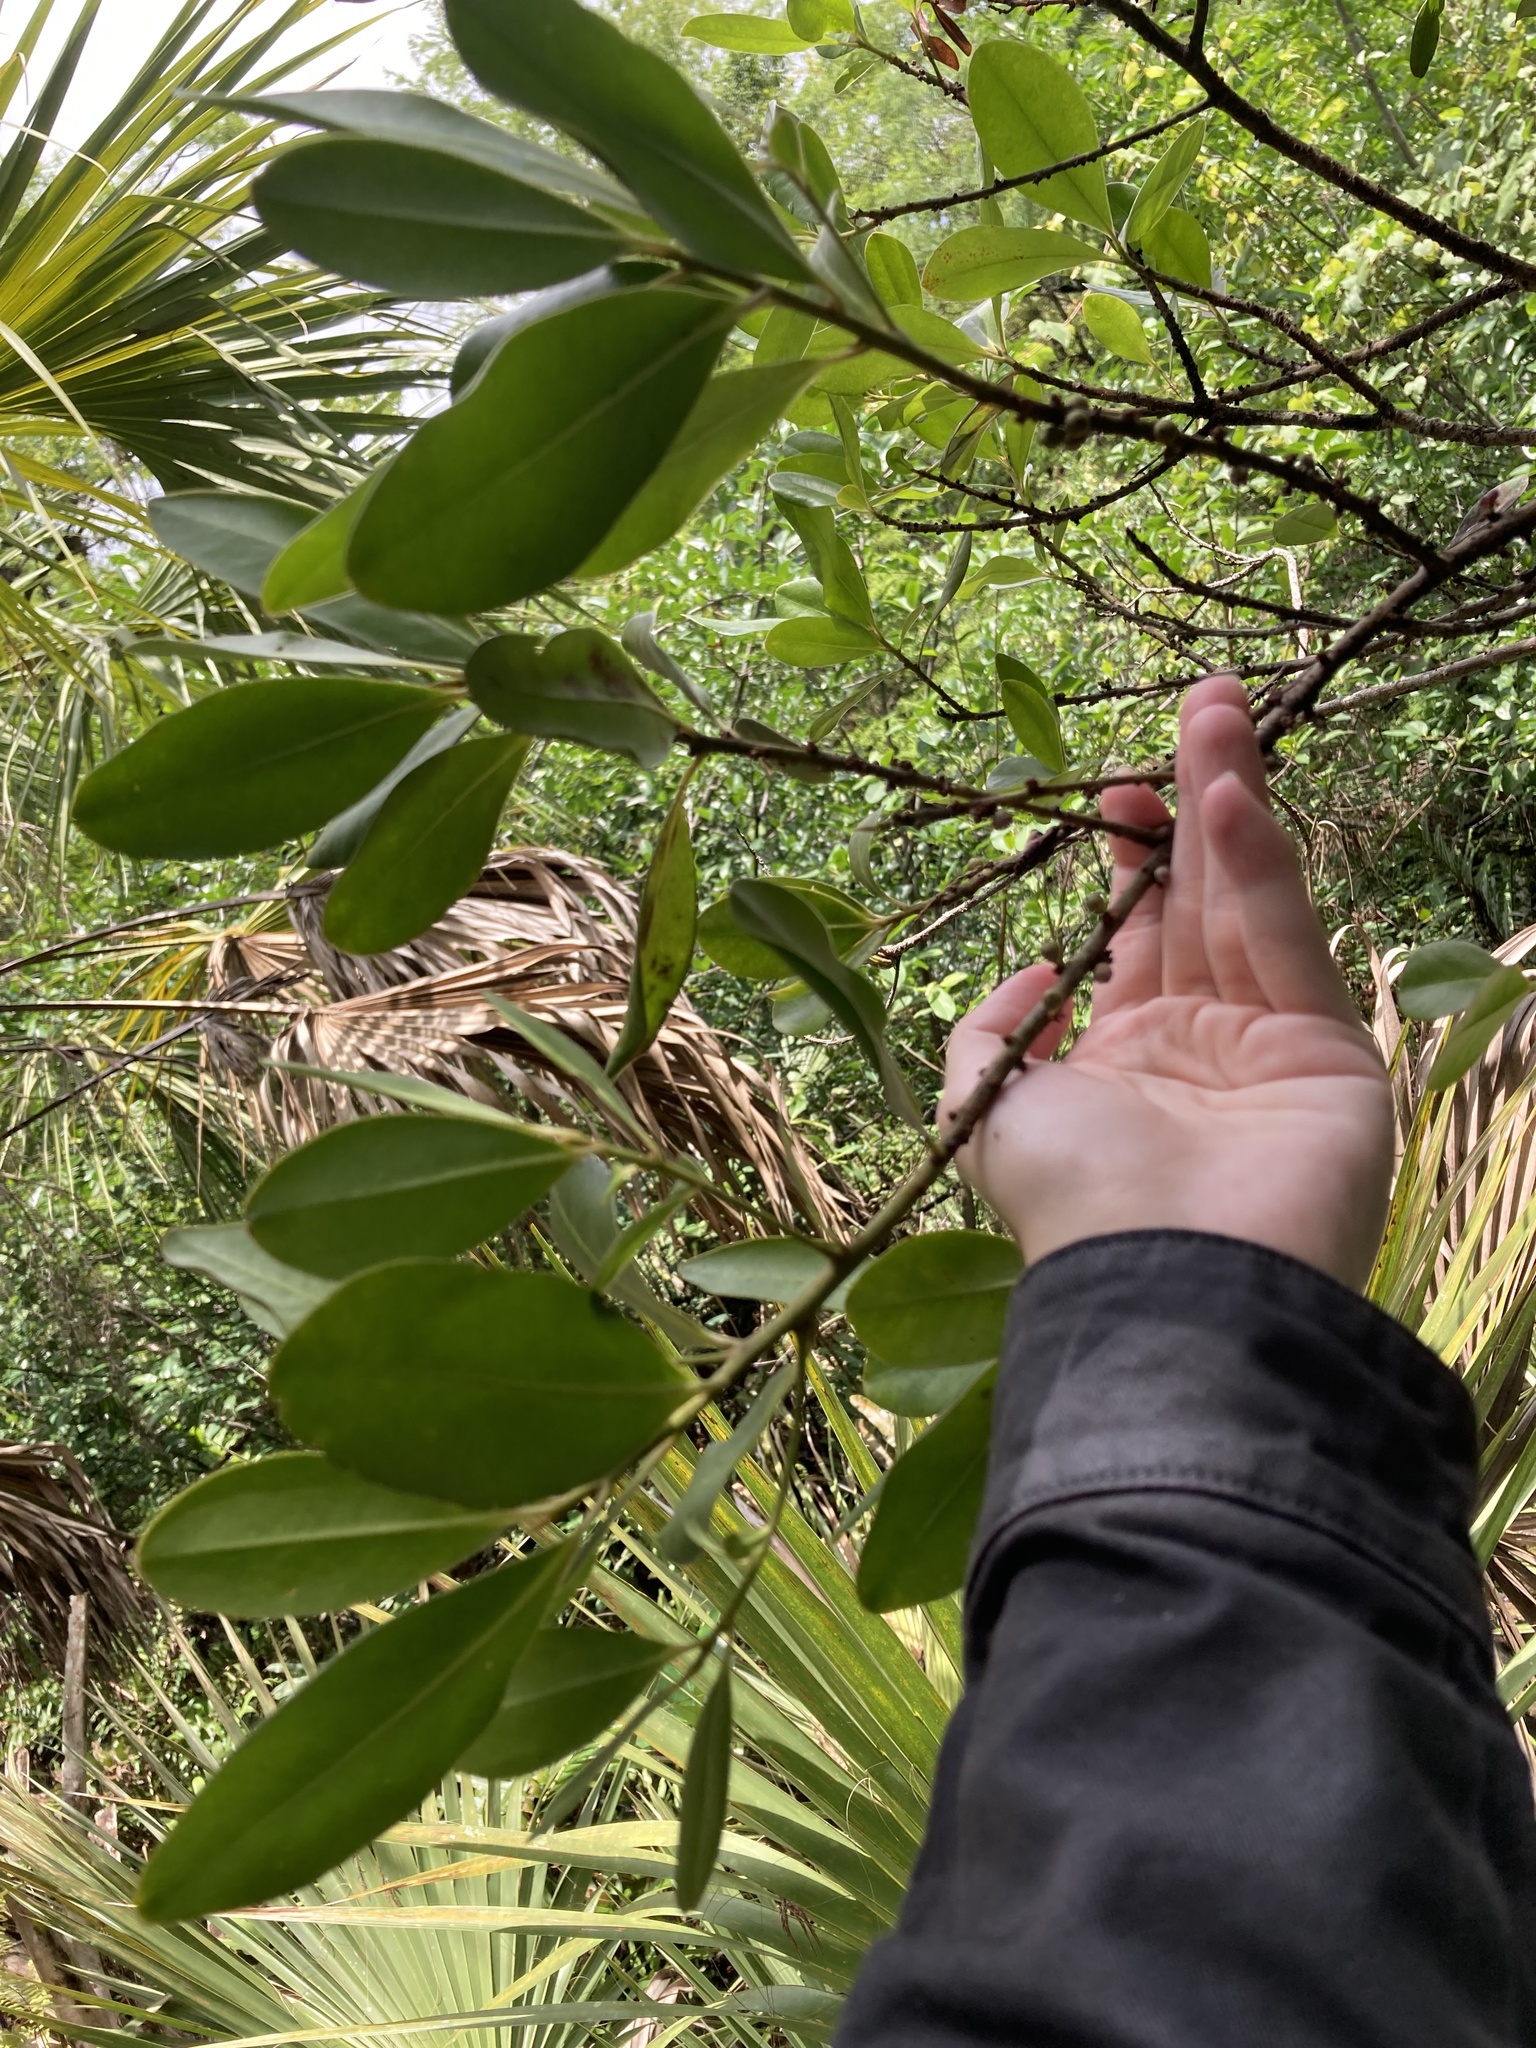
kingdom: Plantae
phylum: Tracheophyta
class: Magnoliopsida
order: Ericales
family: Primulaceae
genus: Myrsine
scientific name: Myrsine floridana
